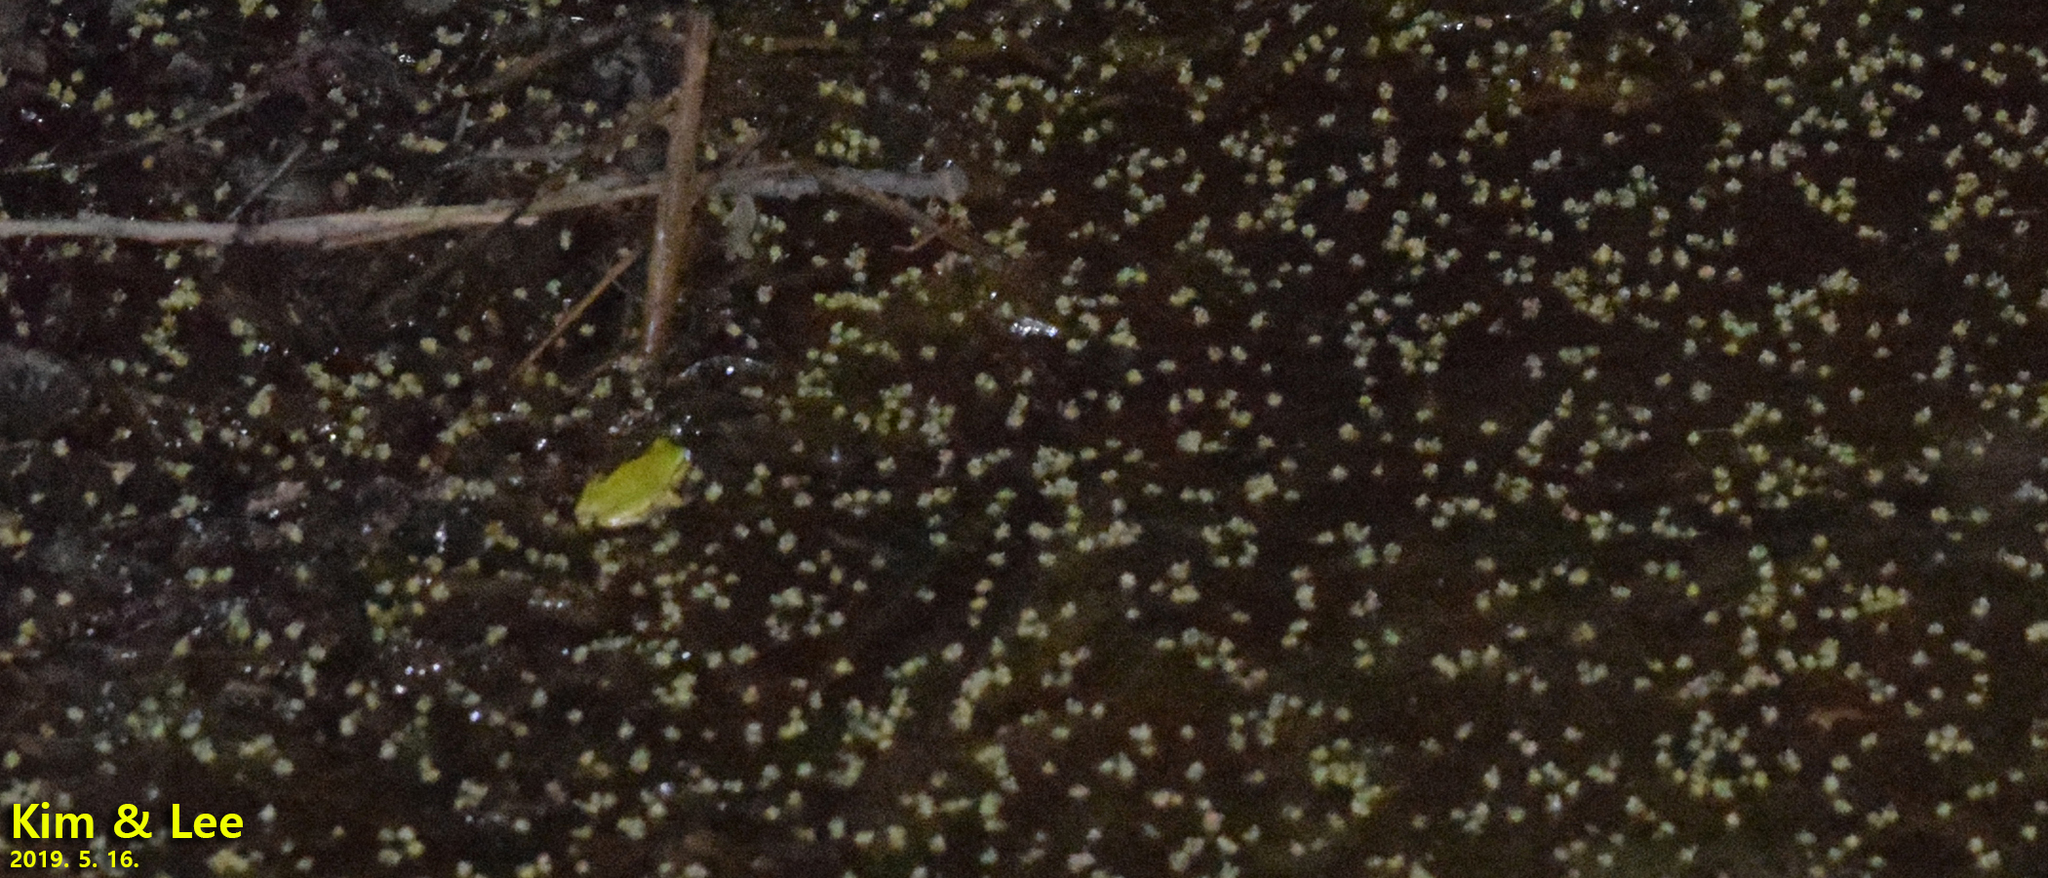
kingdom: Animalia
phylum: Chordata
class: Amphibia
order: Anura
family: Hylidae
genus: Dryophytes
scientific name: Dryophytes japonicus
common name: Japanese treefrog
